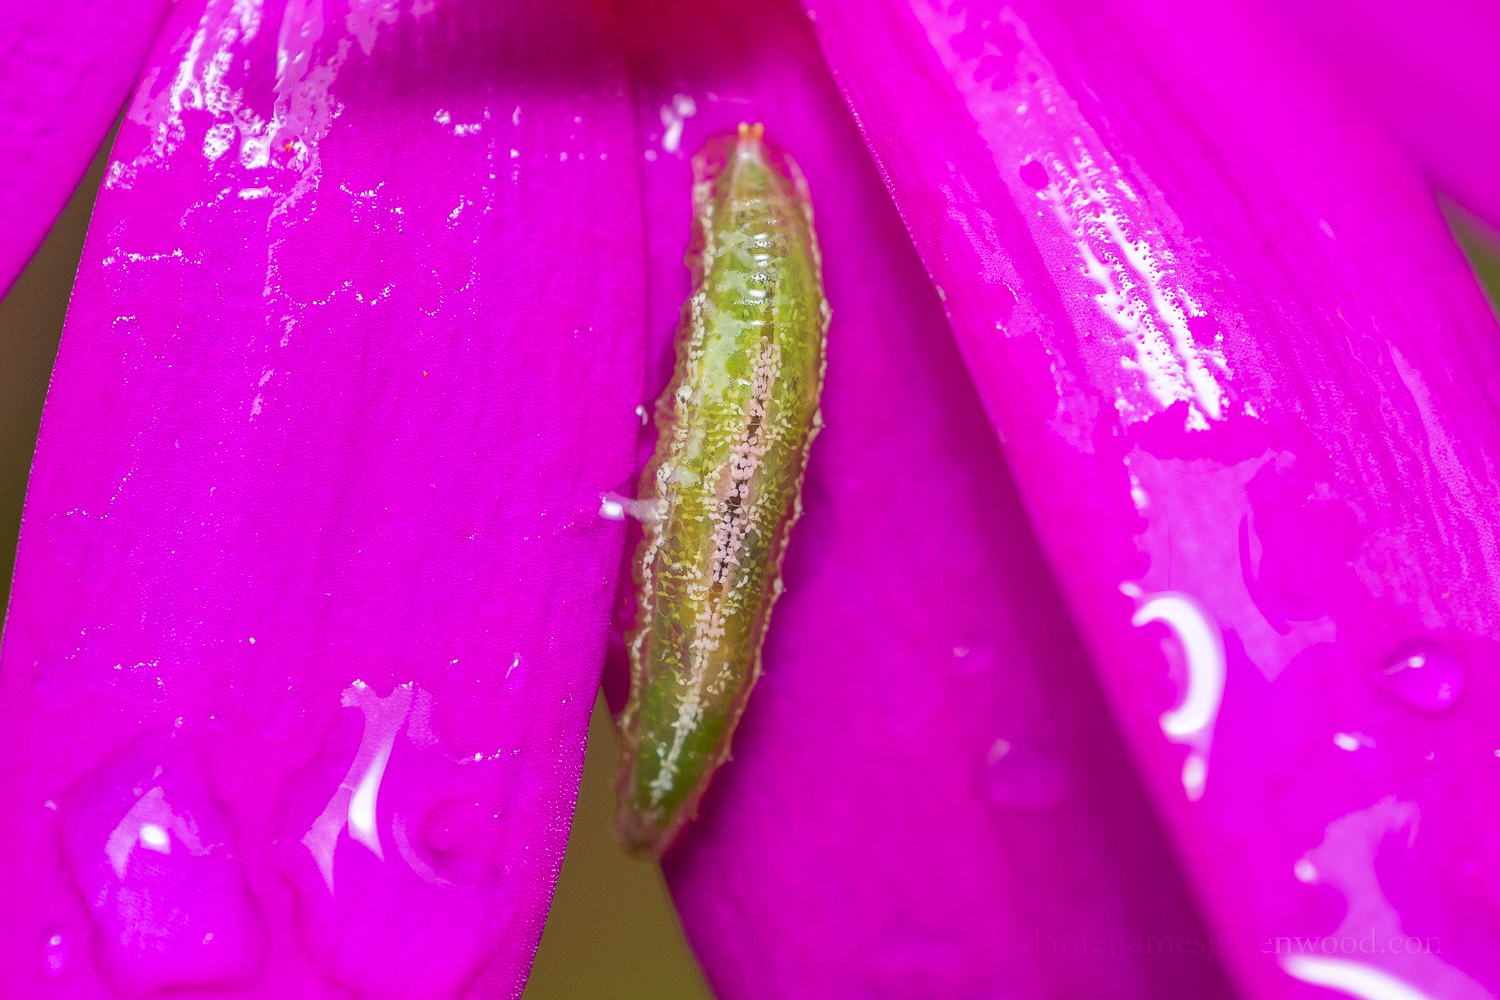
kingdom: Animalia
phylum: Arthropoda
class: Insecta
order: Diptera
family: Syrphidae
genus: Platycheirus
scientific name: Platycheirus
